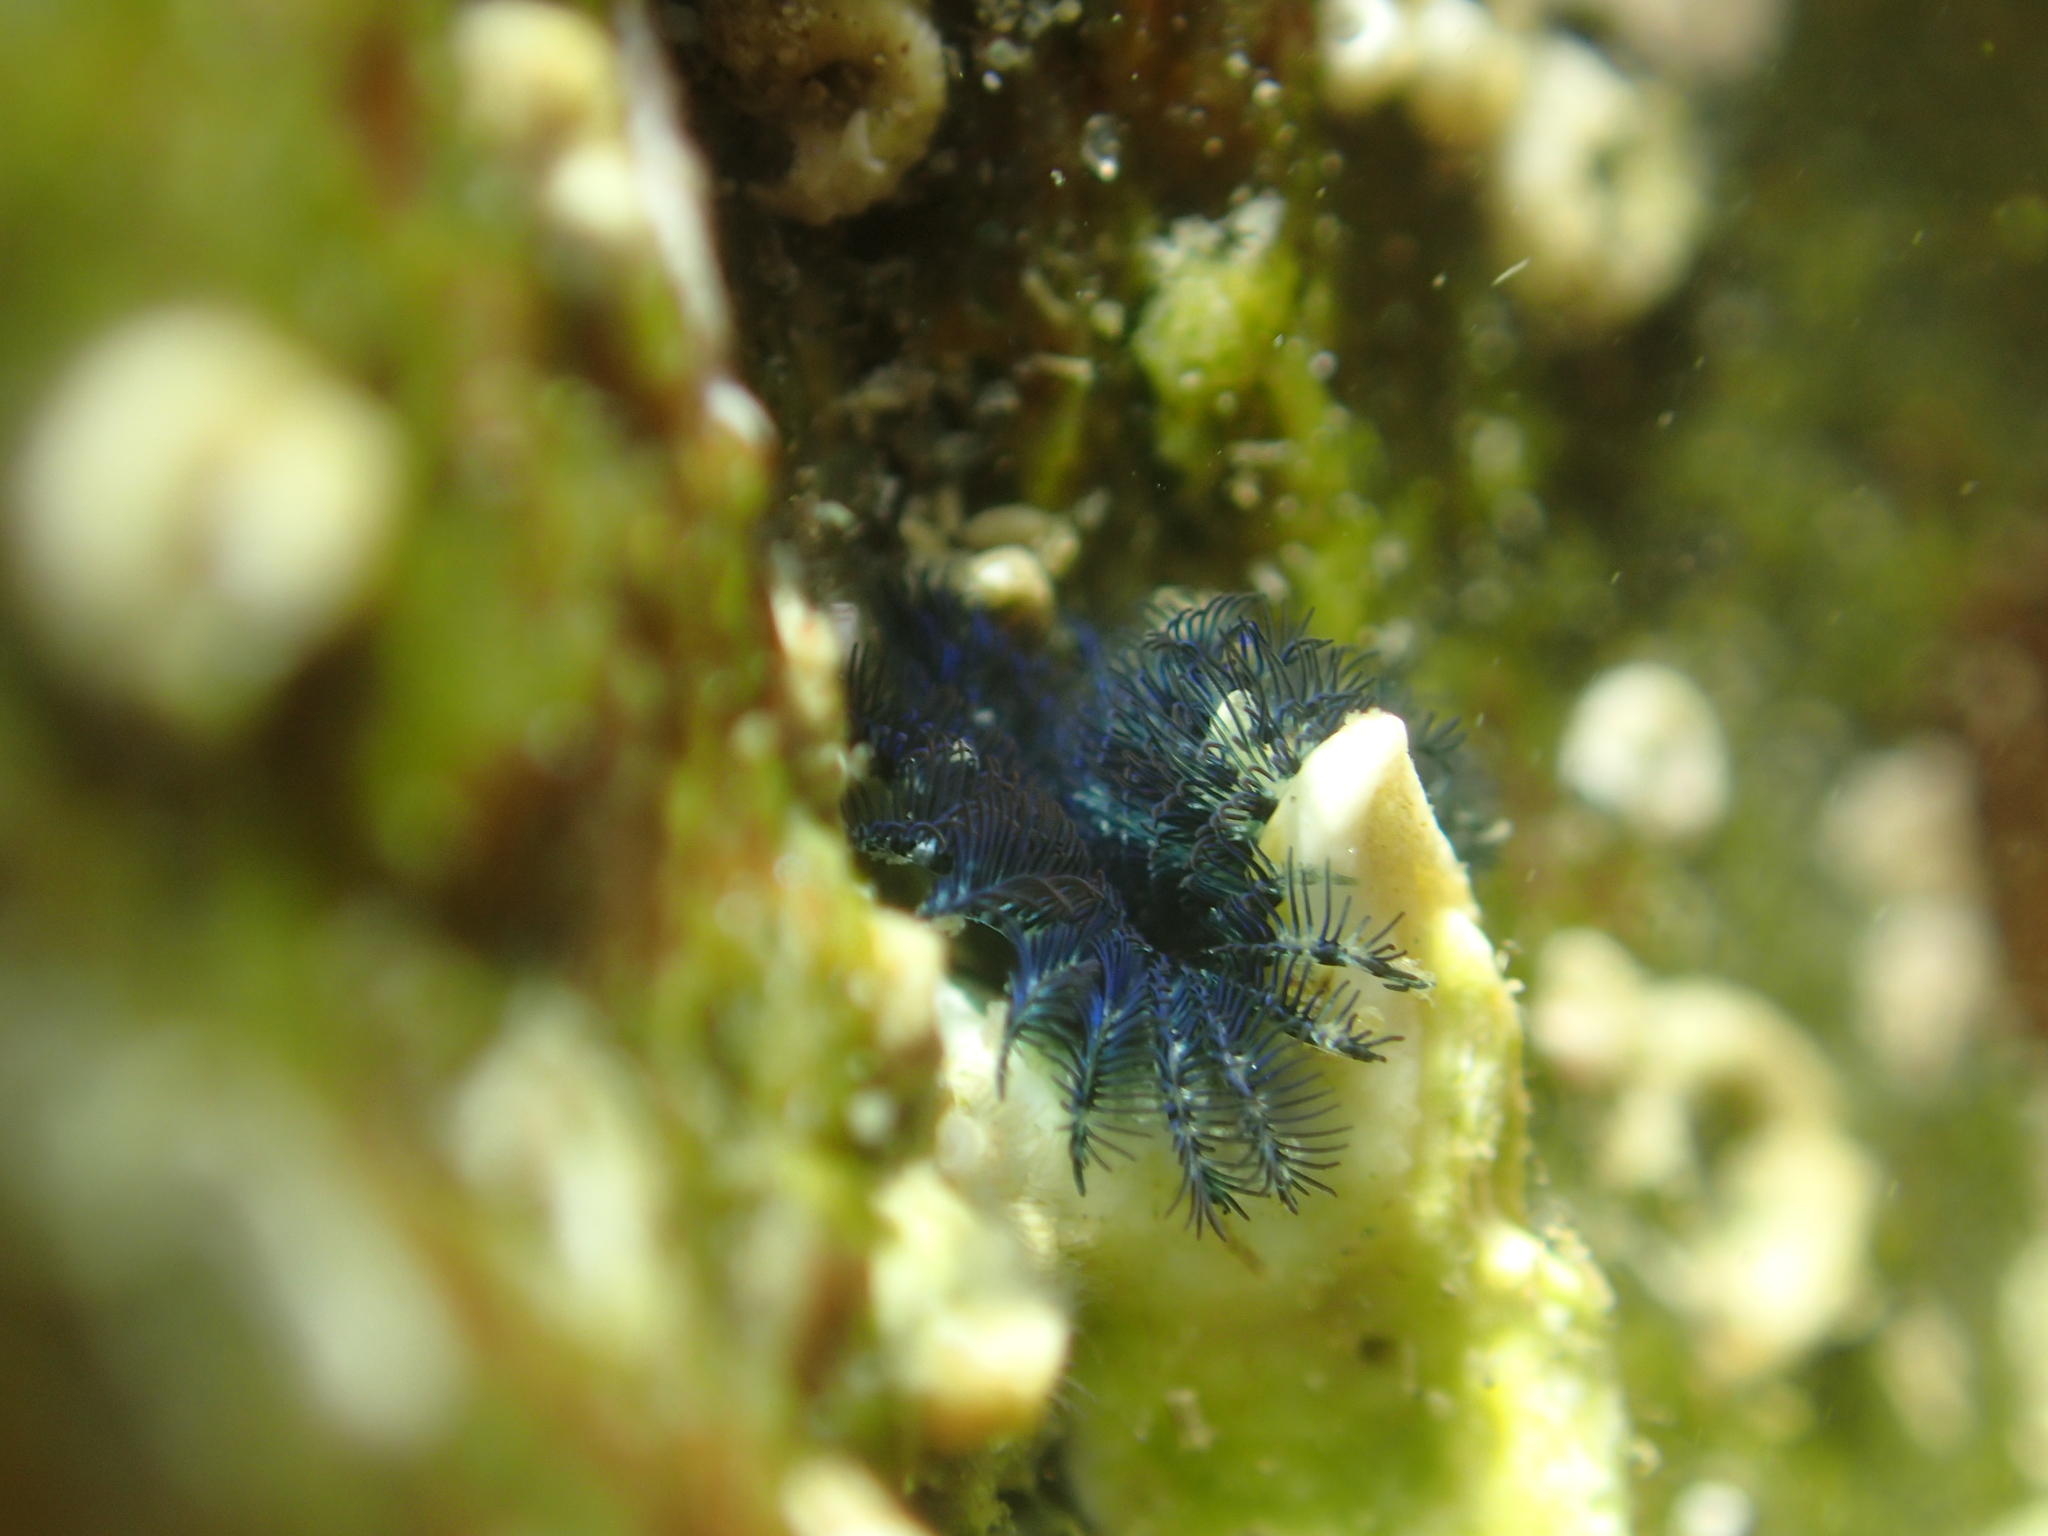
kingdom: Animalia
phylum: Annelida
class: Polychaeta
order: Sabellida
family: Serpulidae
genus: Spirobranchus
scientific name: Spirobranchus cariniferus
